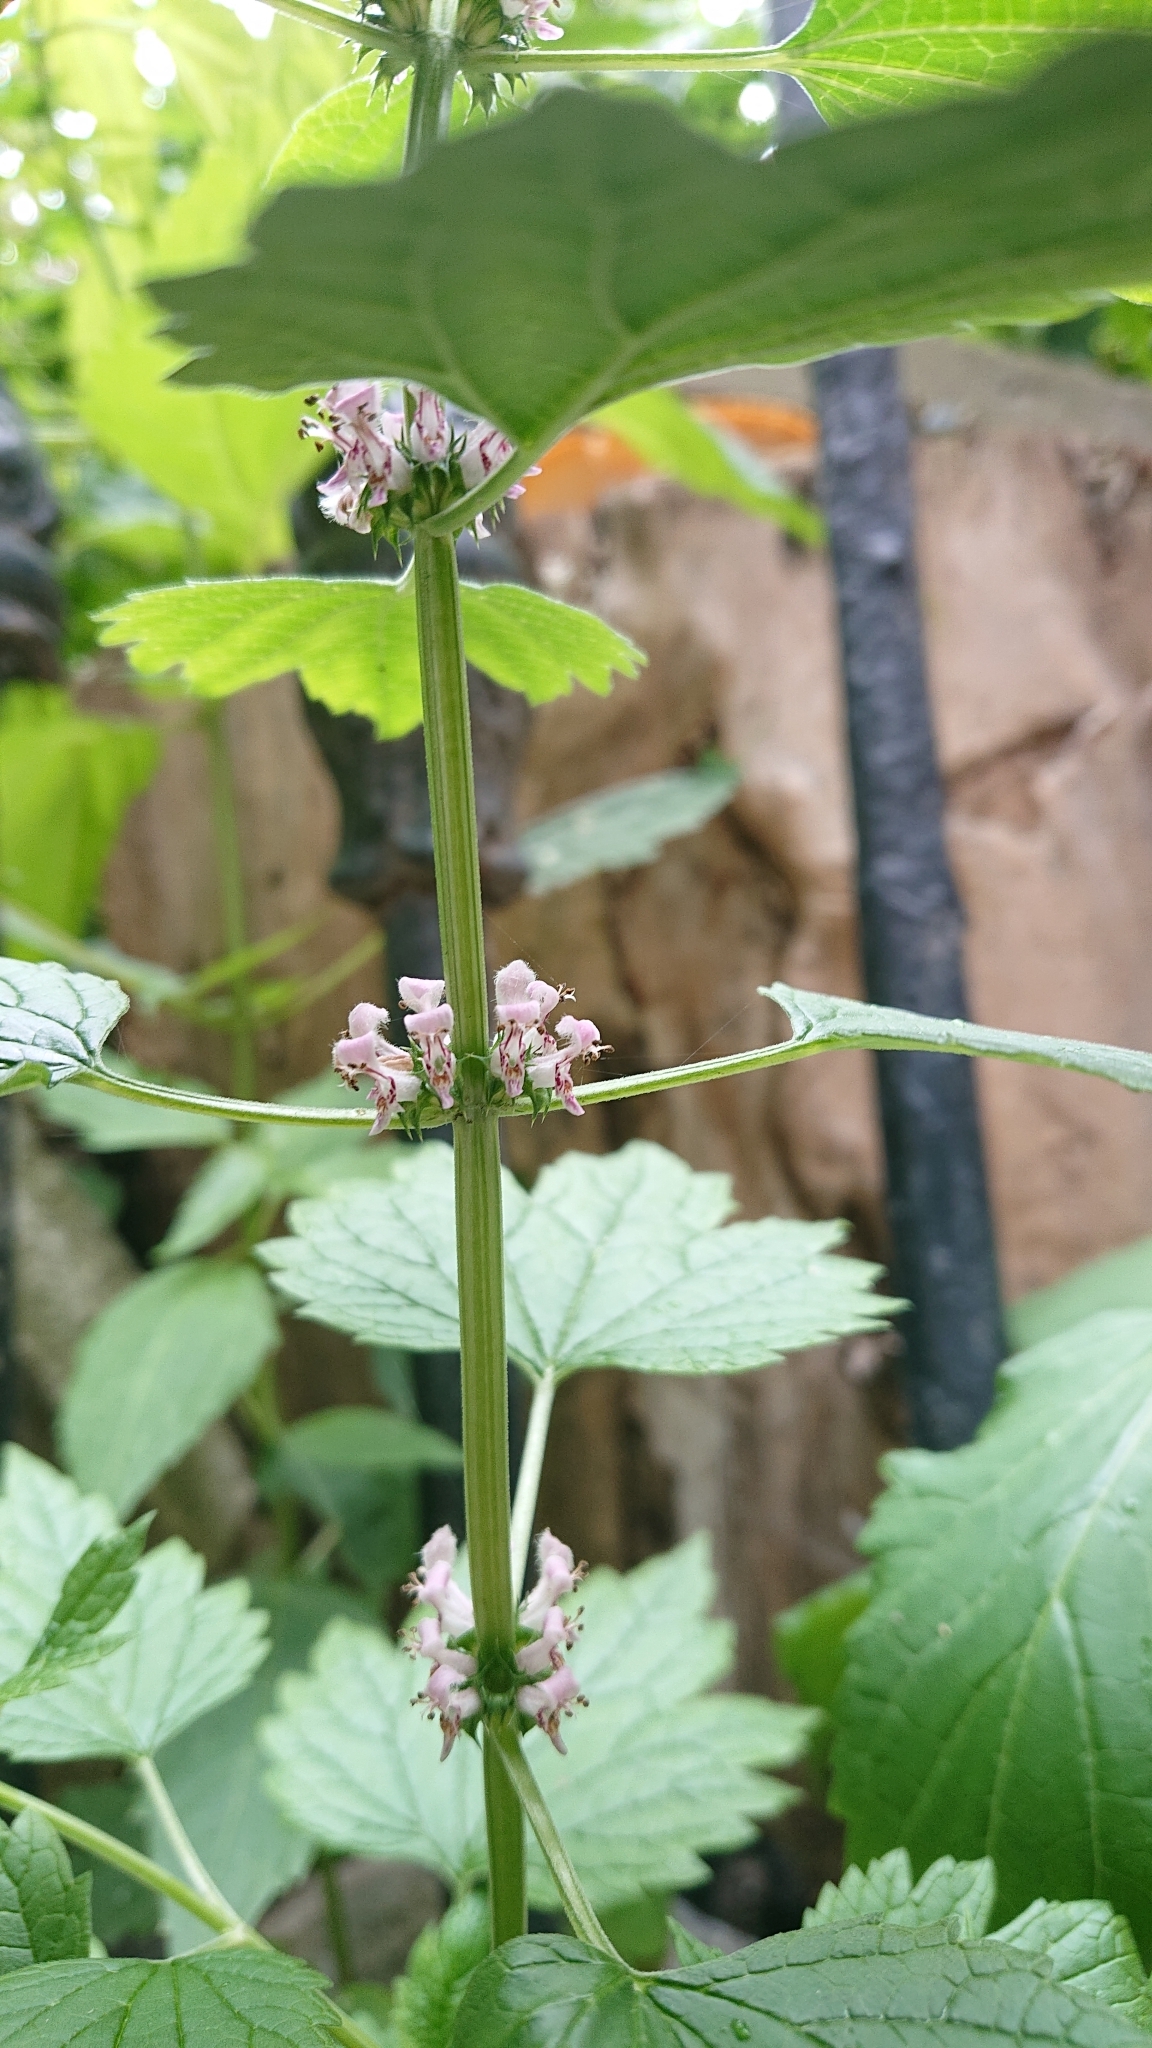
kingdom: Plantae
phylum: Tracheophyta
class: Magnoliopsida
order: Lamiales
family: Lamiaceae
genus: Leonurus
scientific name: Leonurus cardiaca
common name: Motherwort
